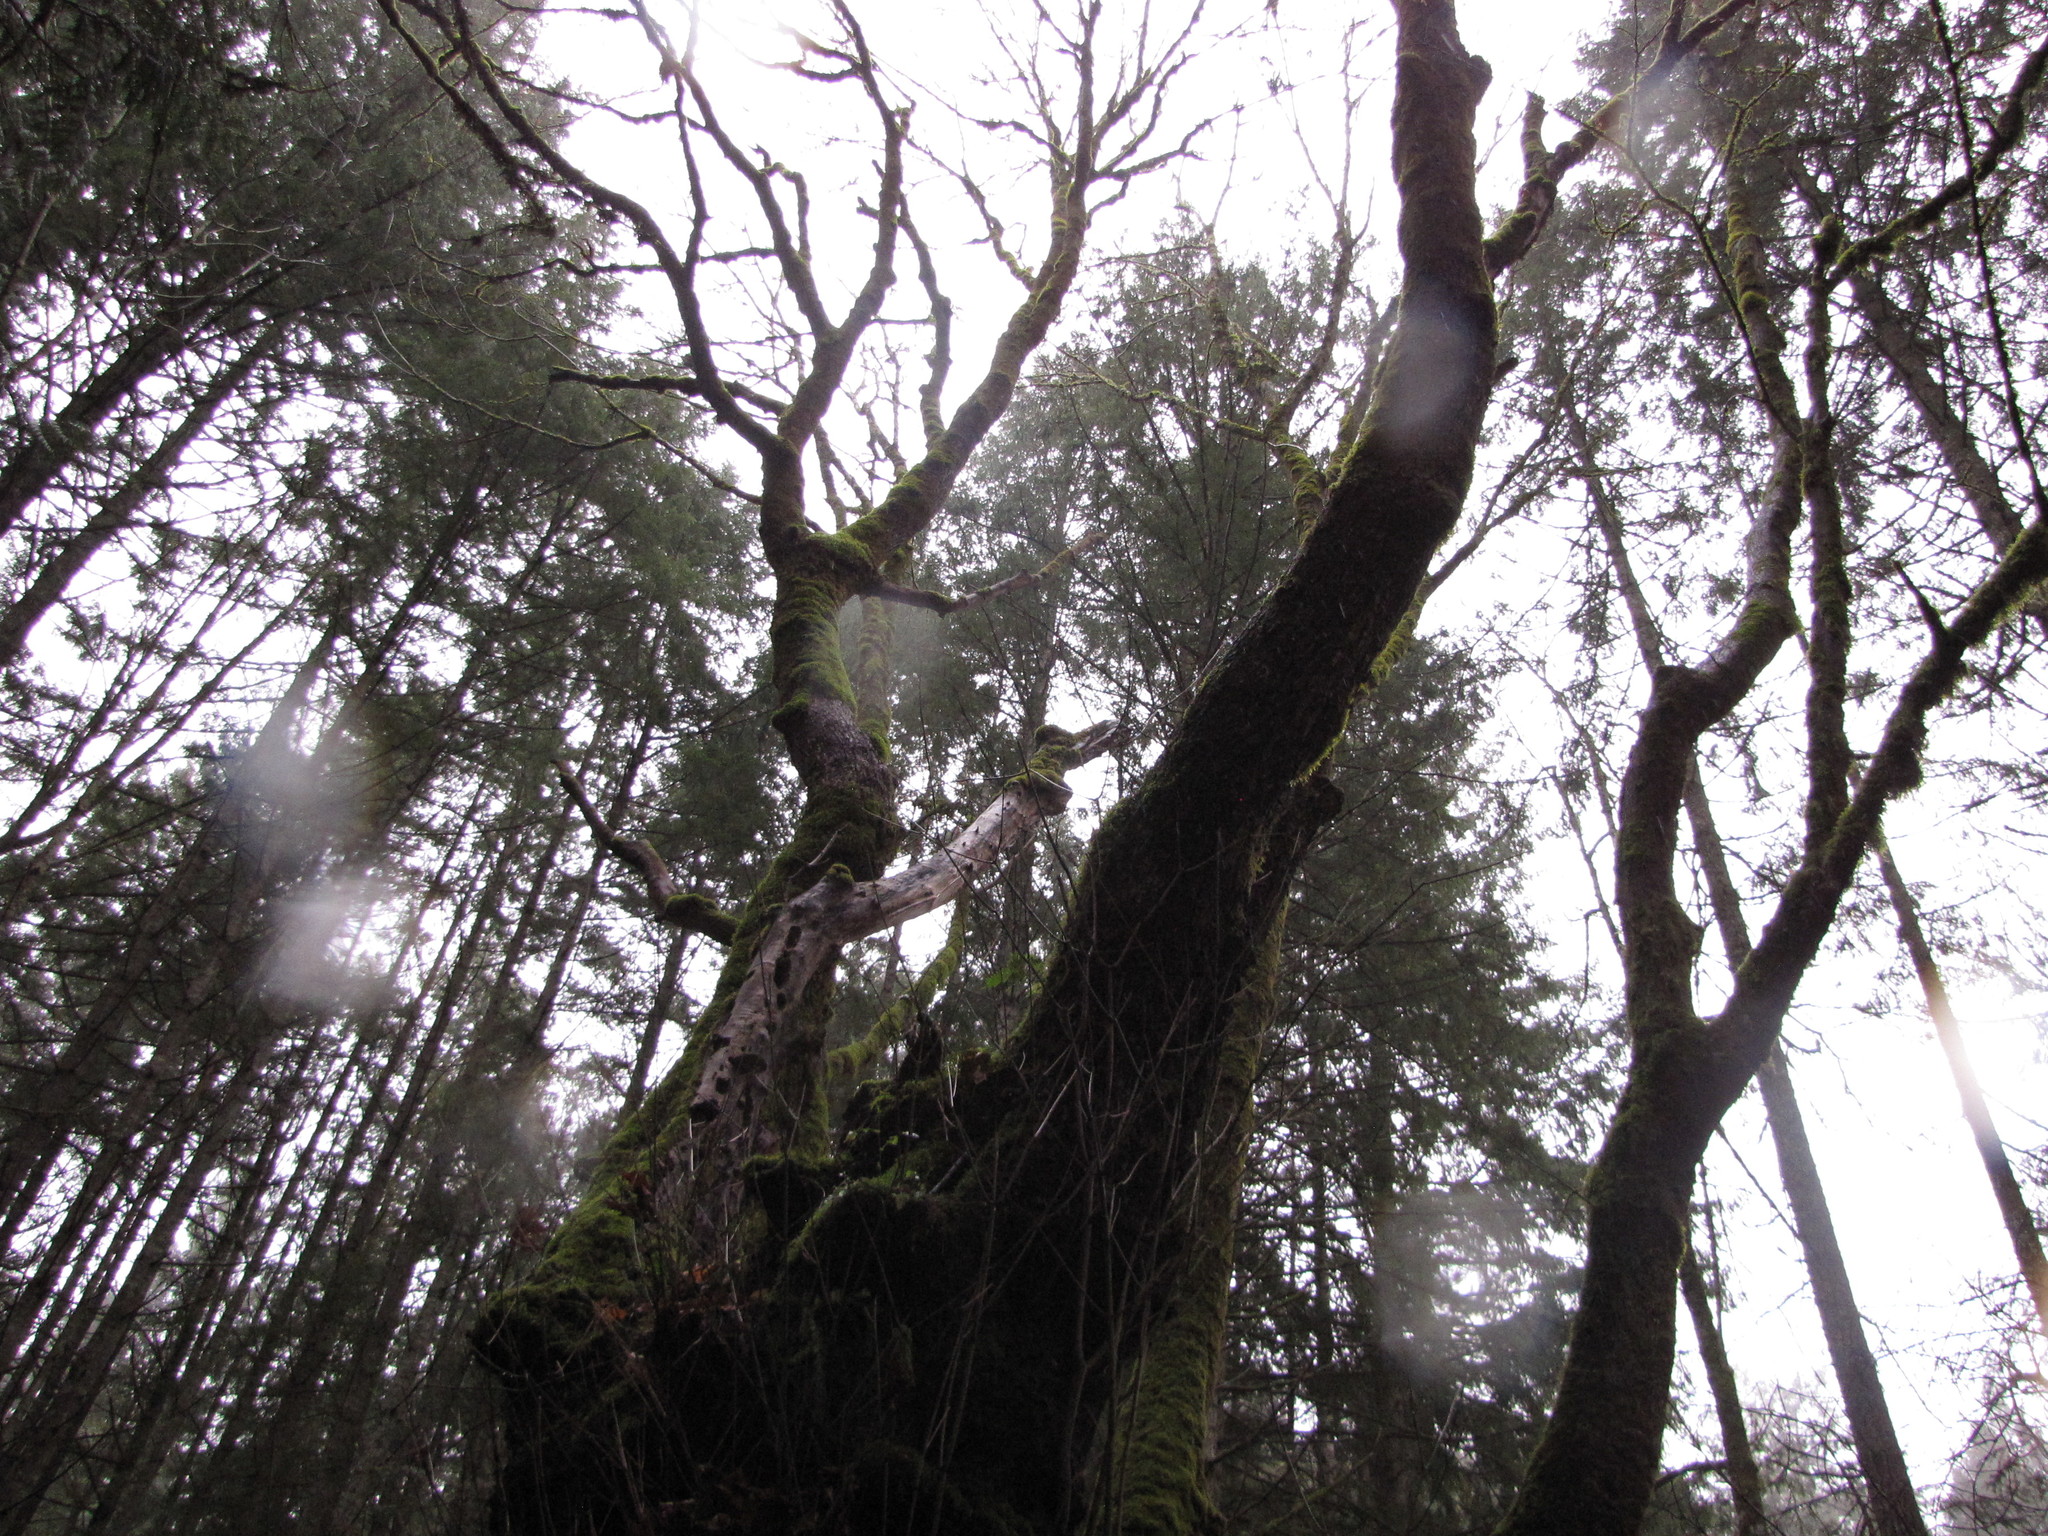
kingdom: Plantae
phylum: Tracheophyta
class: Magnoliopsida
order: Sapindales
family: Sapindaceae
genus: Acer
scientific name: Acer macrophyllum
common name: Oregon maple
